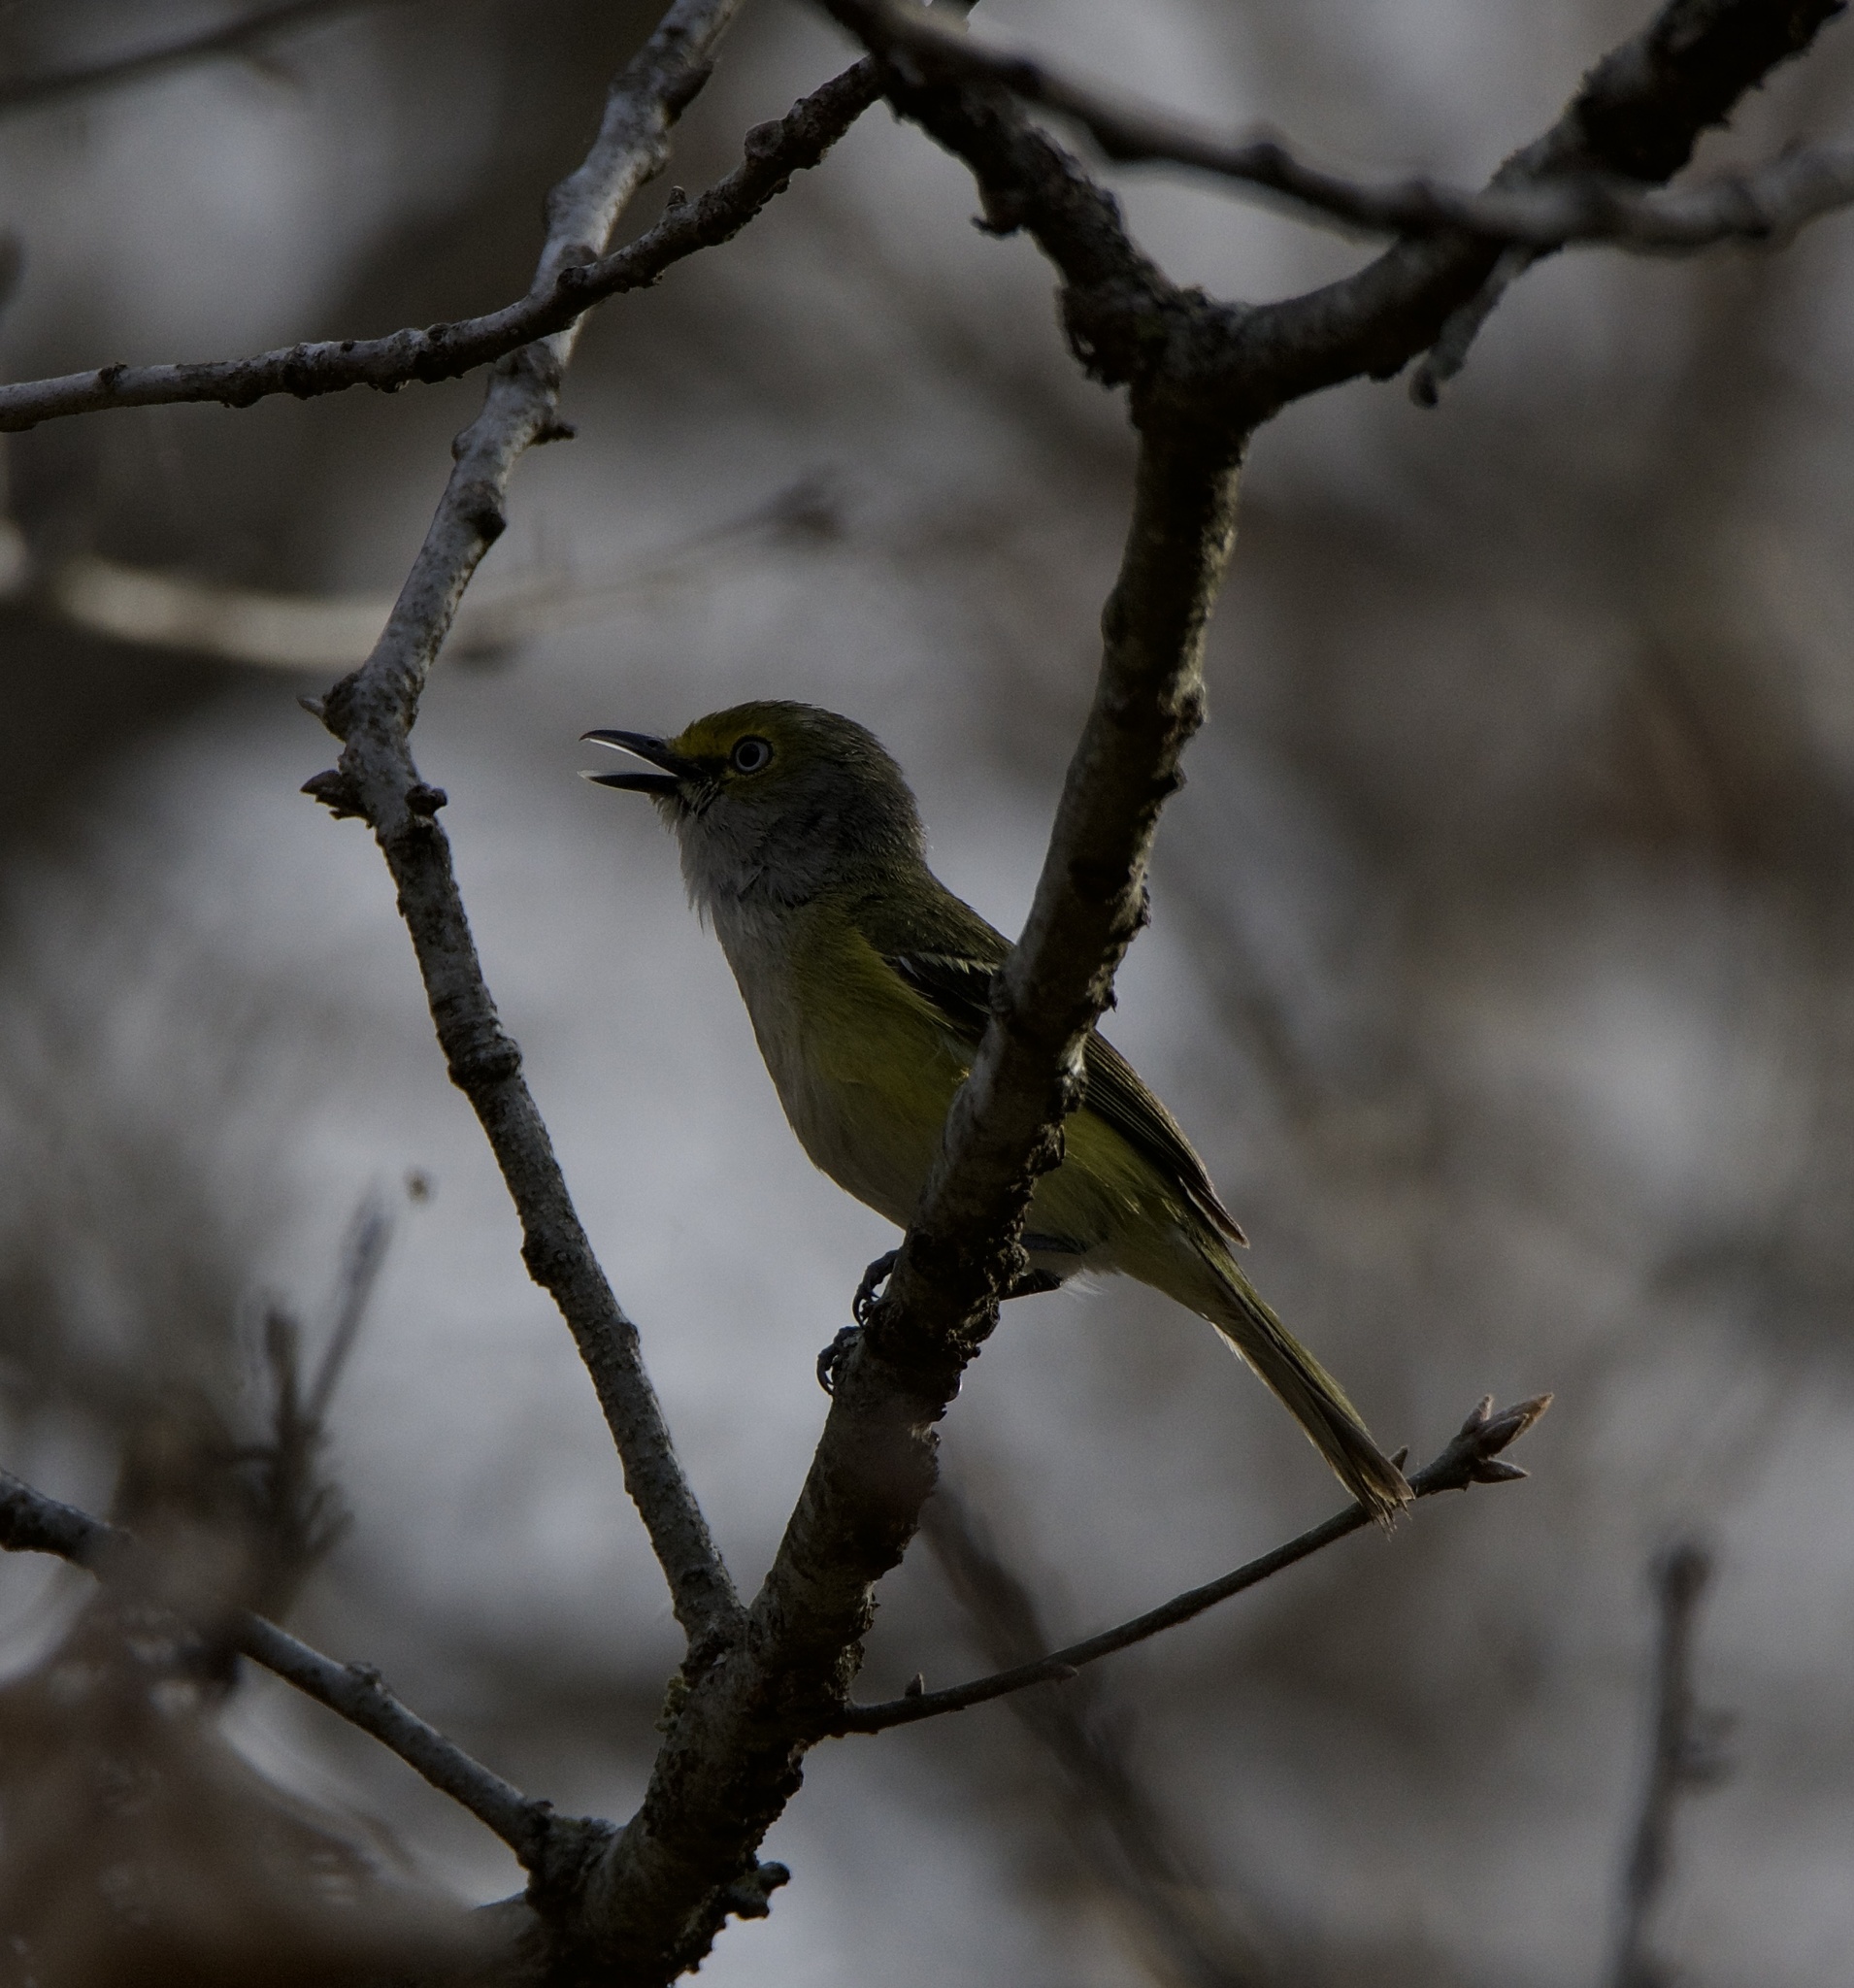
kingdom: Animalia
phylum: Chordata
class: Aves
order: Passeriformes
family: Vireonidae
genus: Vireo
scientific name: Vireo griseus
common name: White-eyed vireo
